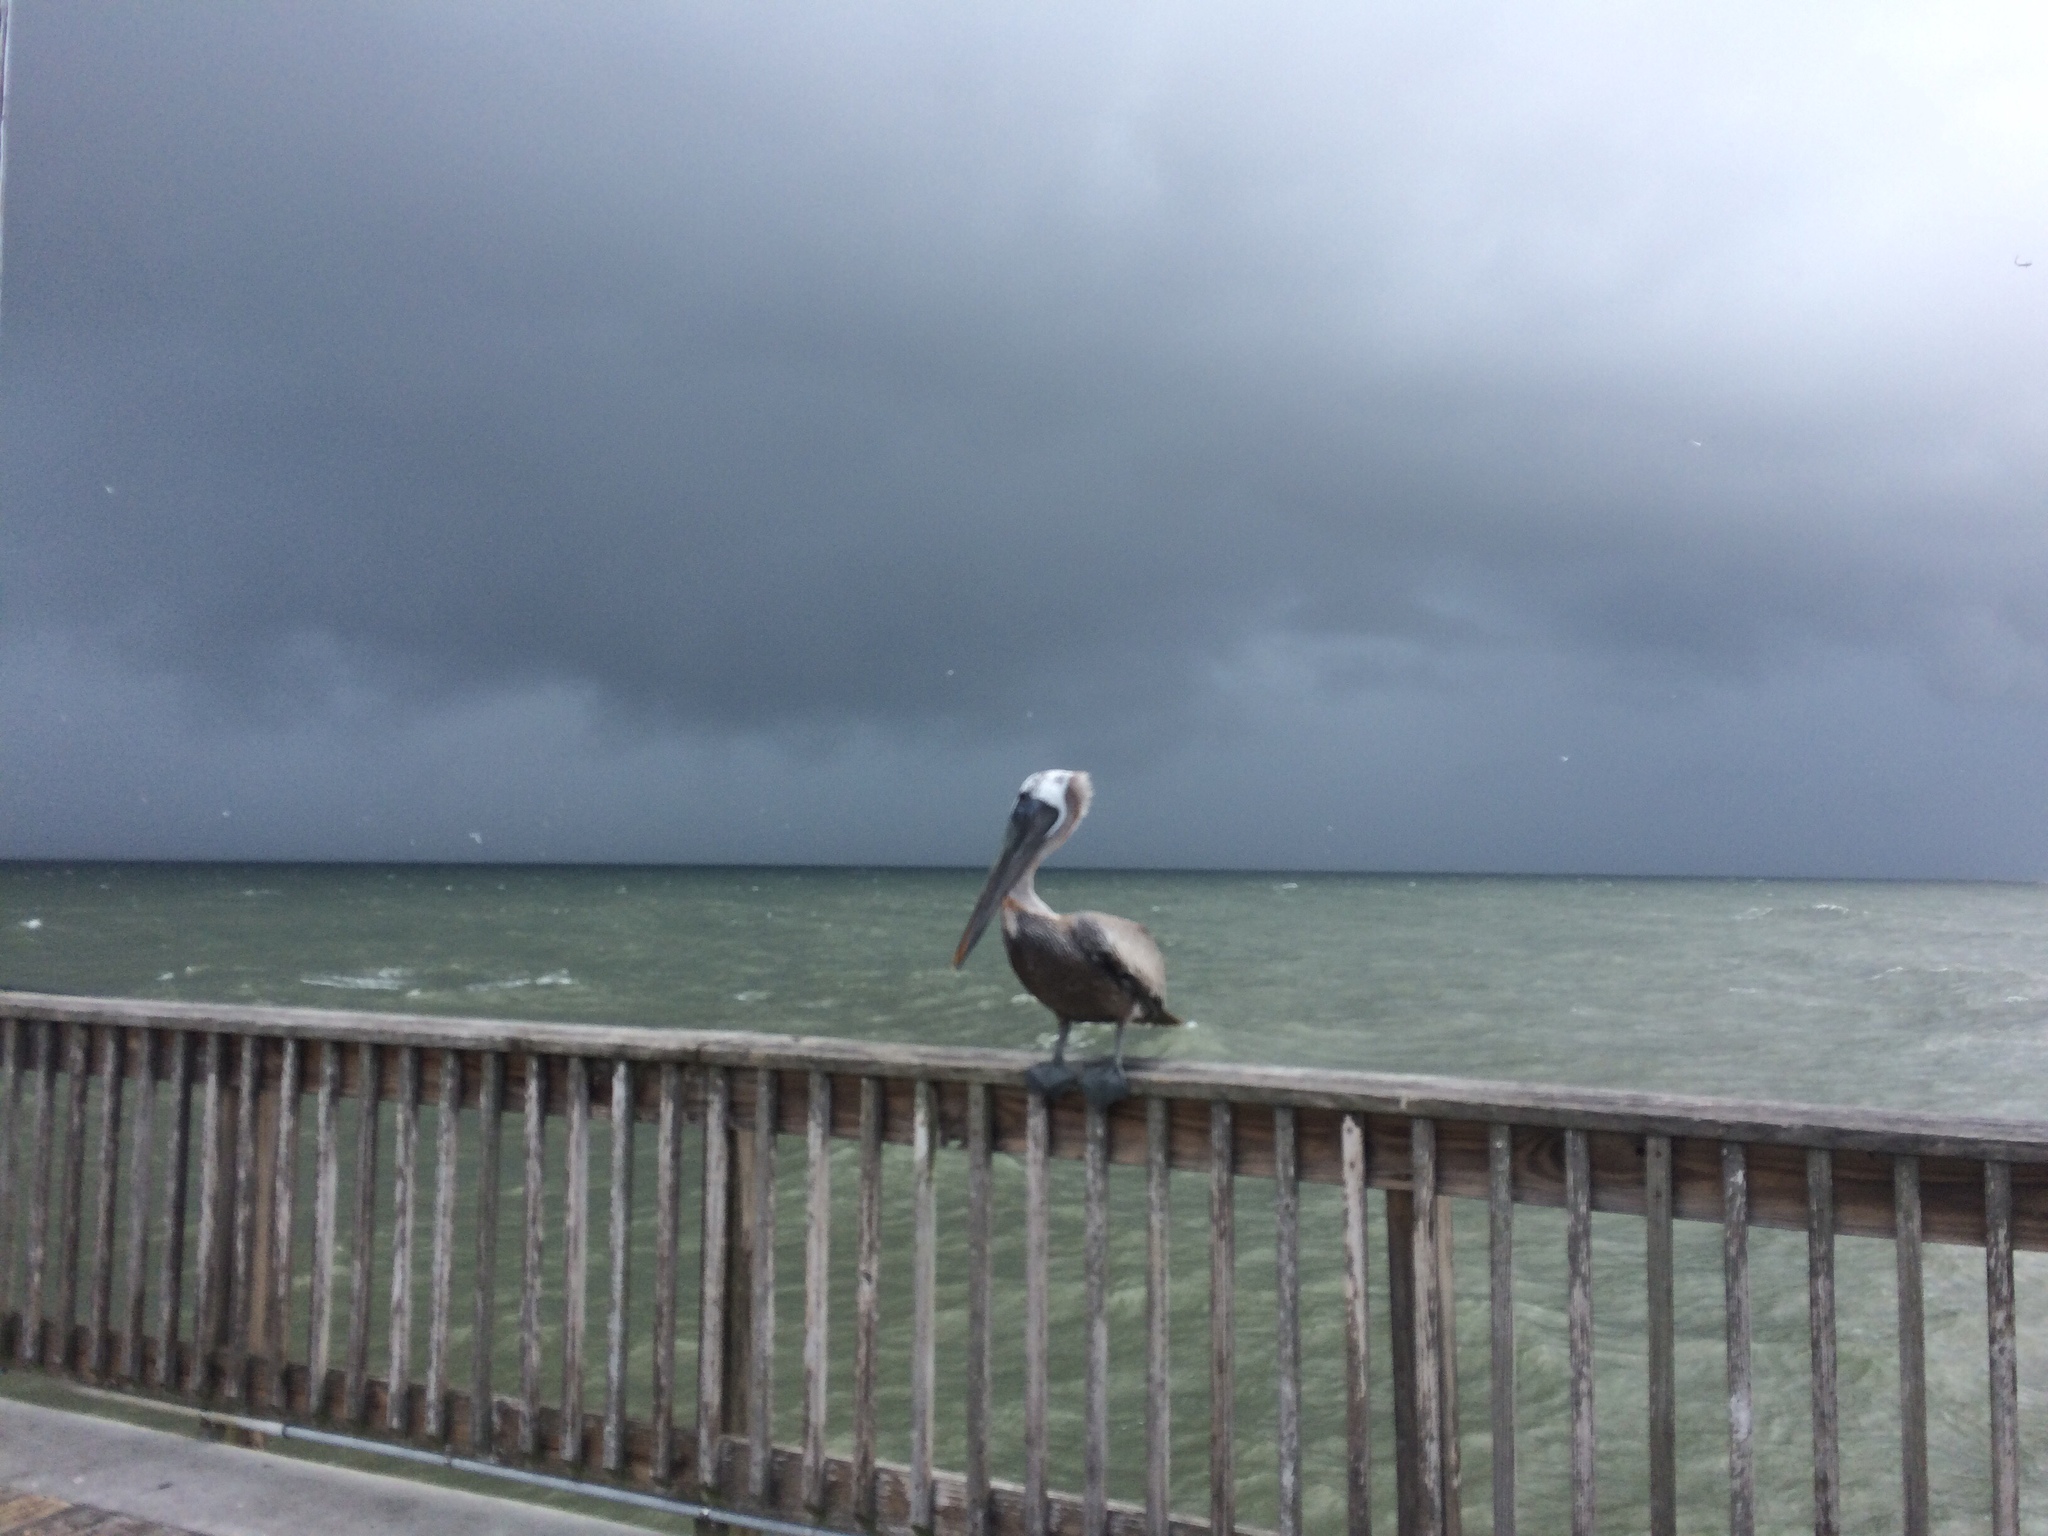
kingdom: Animalia
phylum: Chordata
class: Aves
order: Pelecaniformes
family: Pelecanidae
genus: Pelecanus
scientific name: Pelecanus occidentalis
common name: Brown pelican
